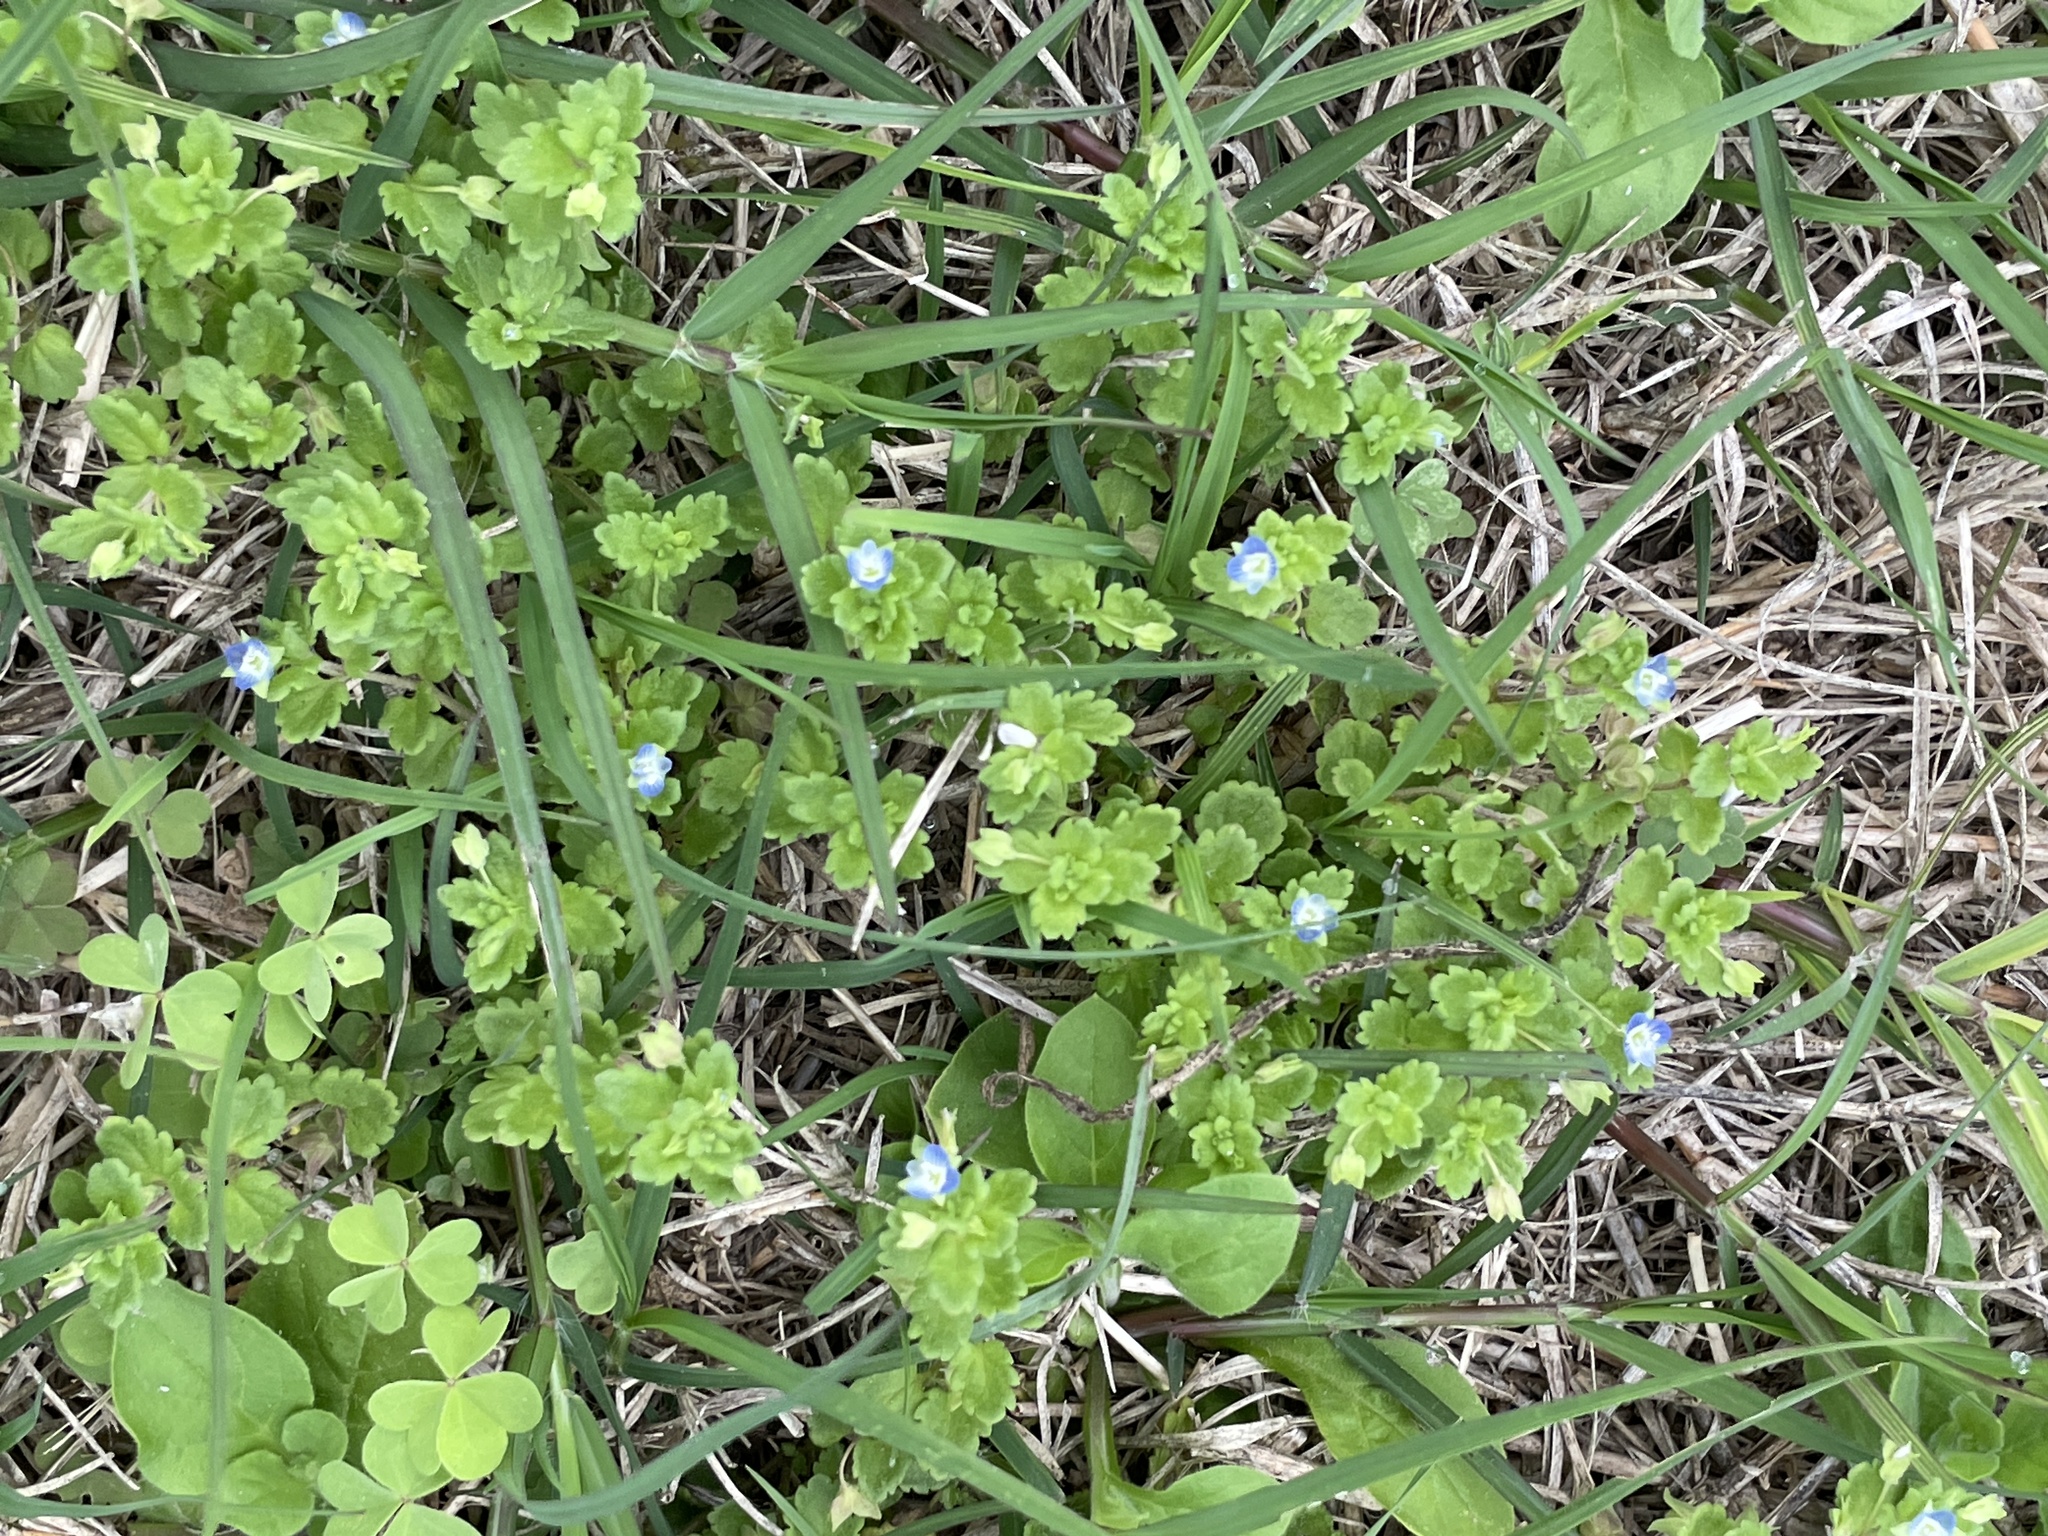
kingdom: Plantae
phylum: Tracheophyta
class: Magnoliopsida
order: Lamiales
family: Plantaginaceae
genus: Veronica
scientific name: Veronica polita
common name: Grey field-speedwell
